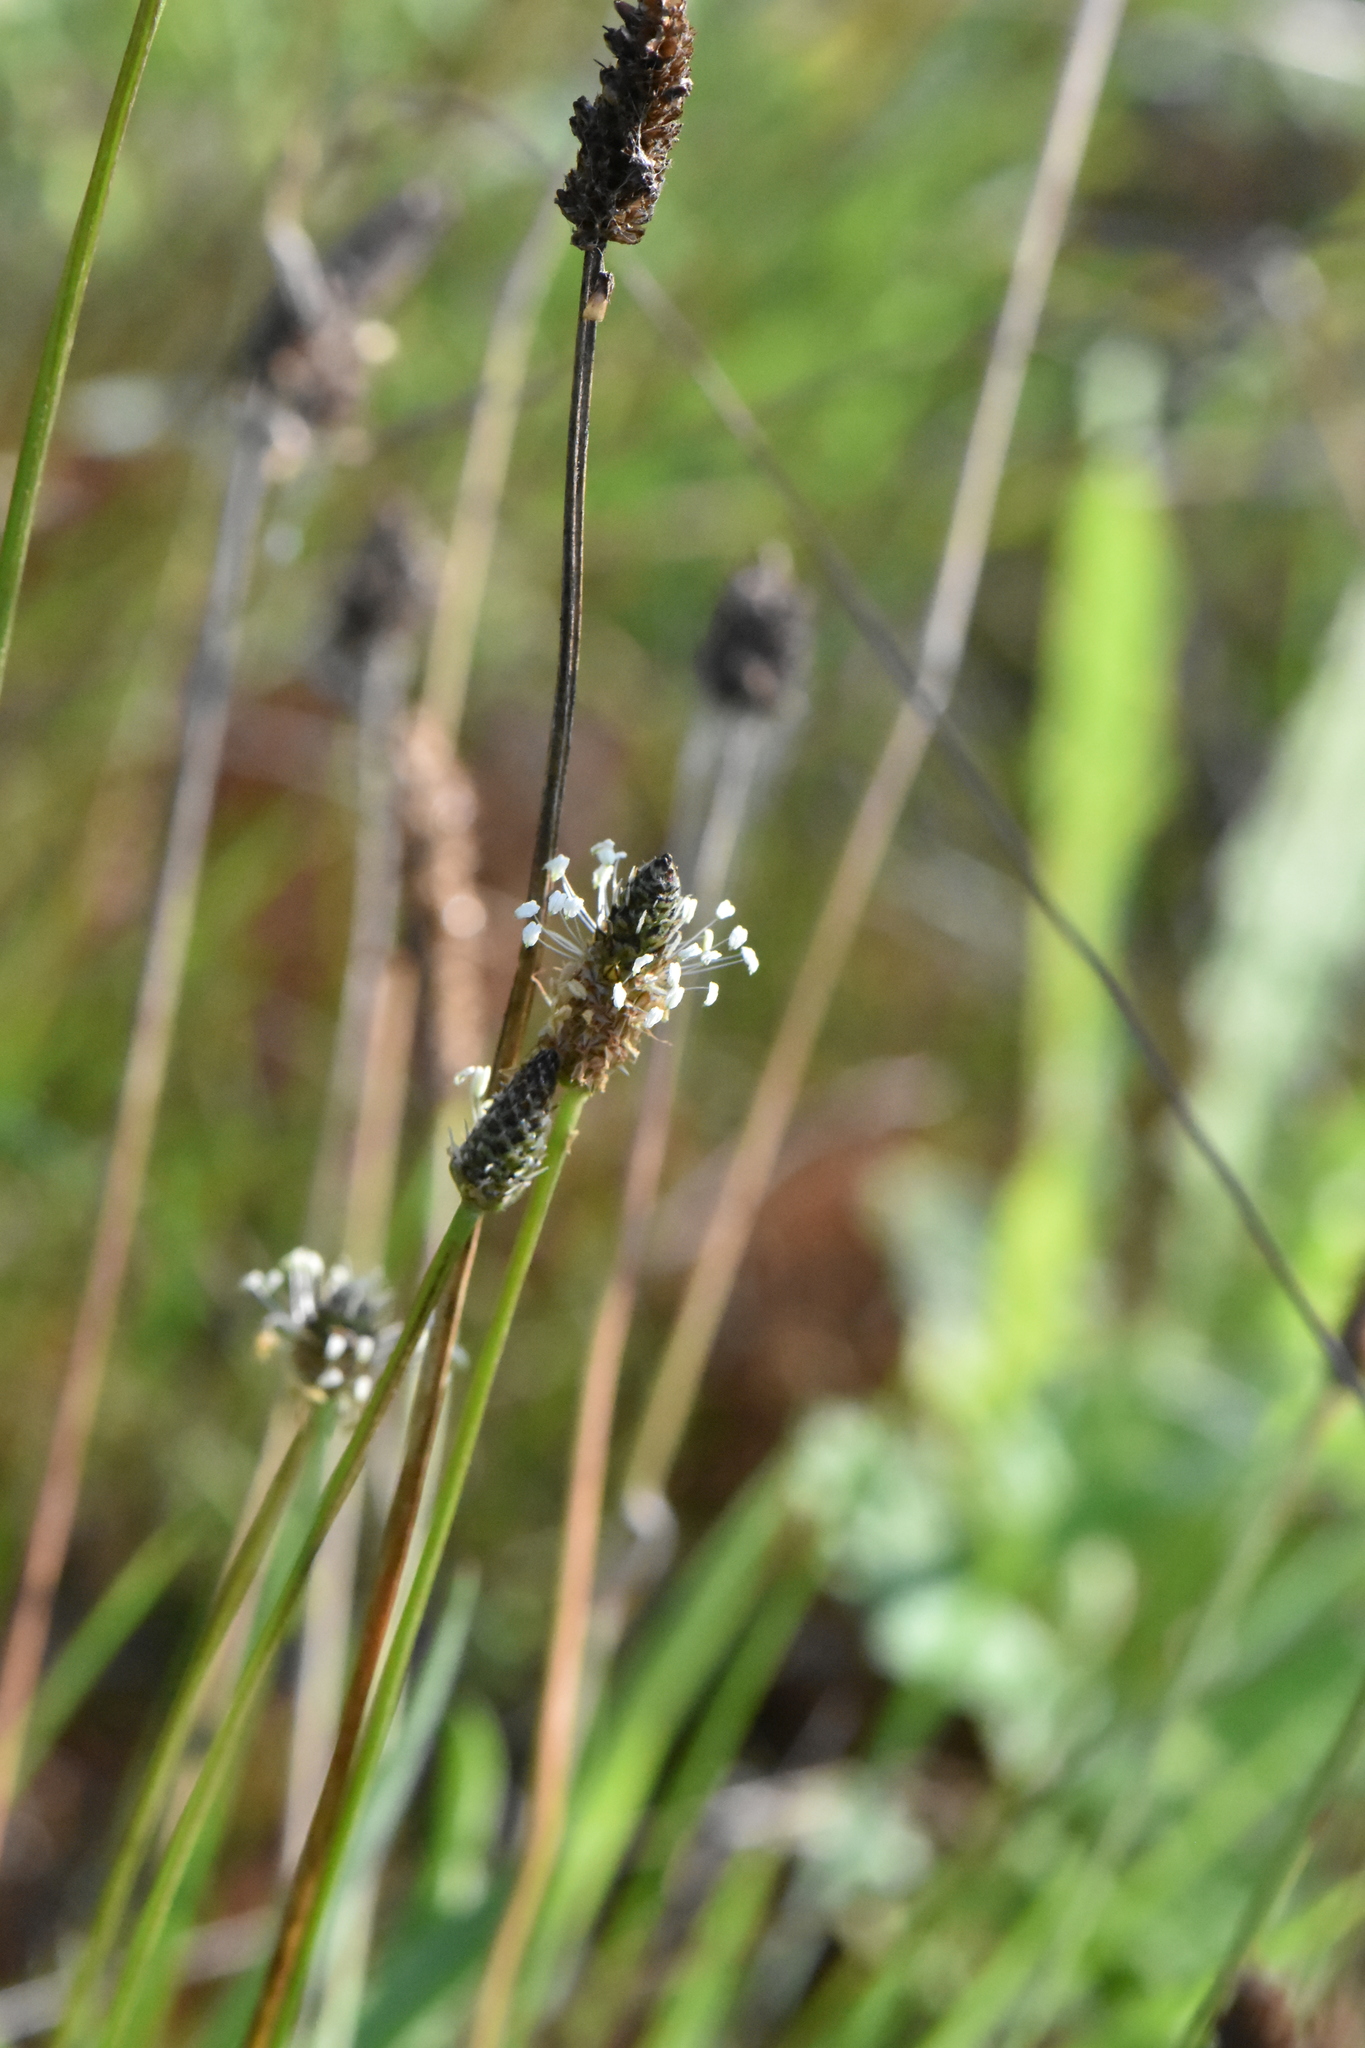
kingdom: Plantae
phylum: Tracheophyta
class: Magnoliopsida
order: Lamiales
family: Plantaginaceae
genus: Plantago
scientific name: Plantago lanceolata
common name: Ribwort plantain
